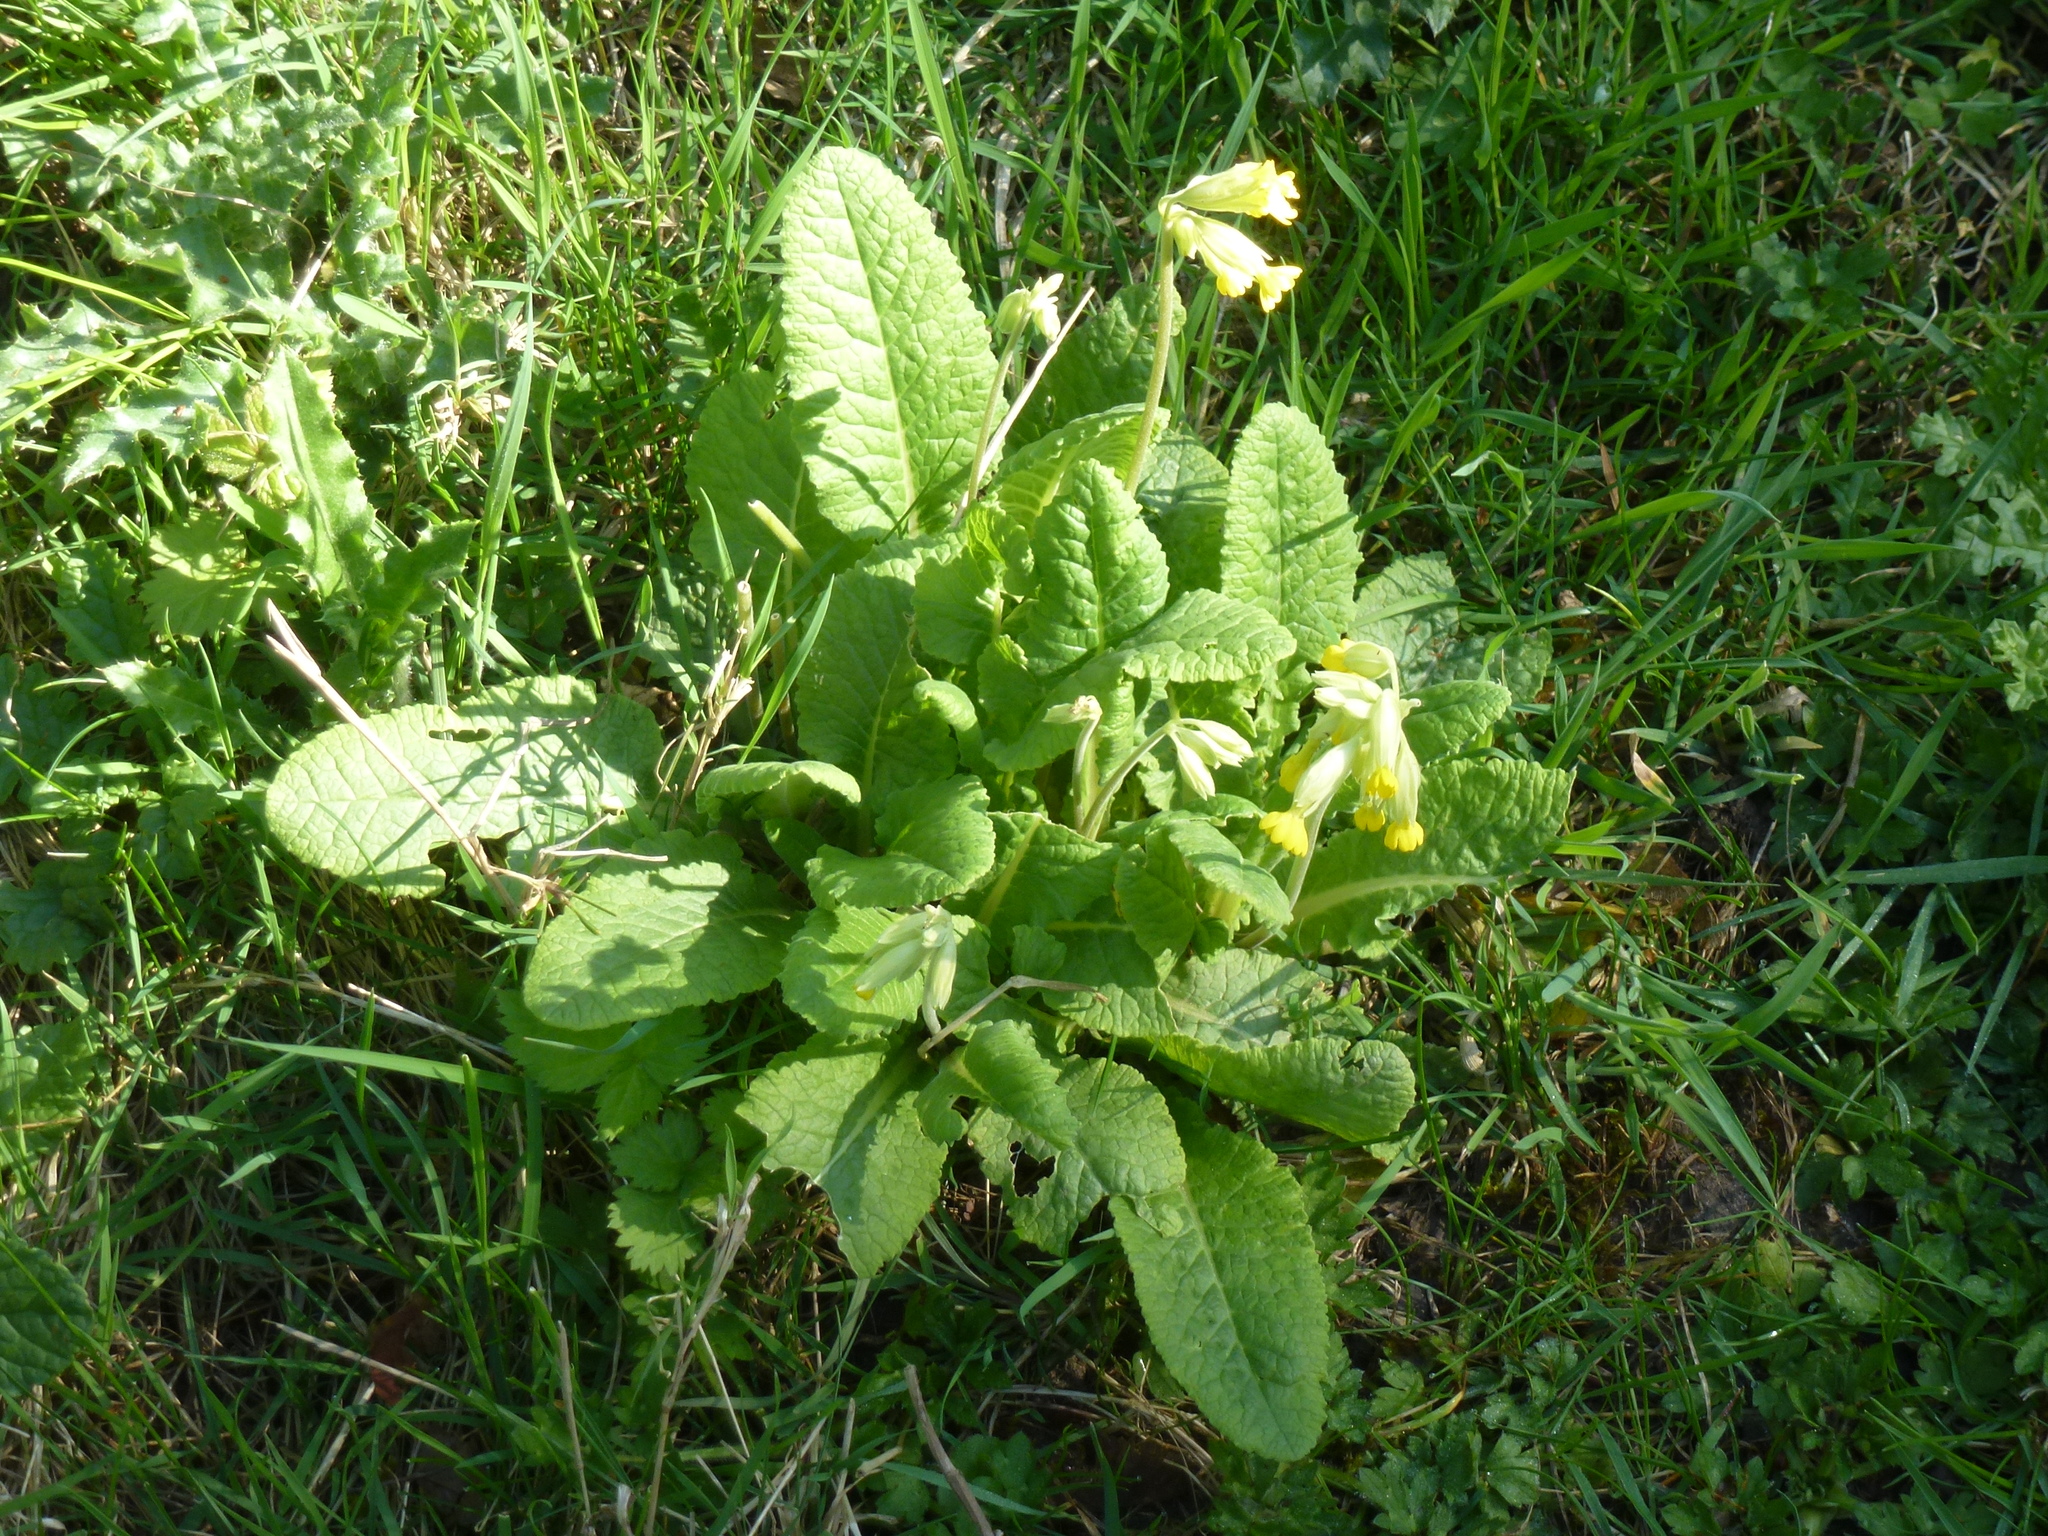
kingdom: Plantae
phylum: Tracheophyta
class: Magnoliopsida
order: Ericales
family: Primulaceae
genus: Primula
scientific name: Primula veris
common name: Cowslip
